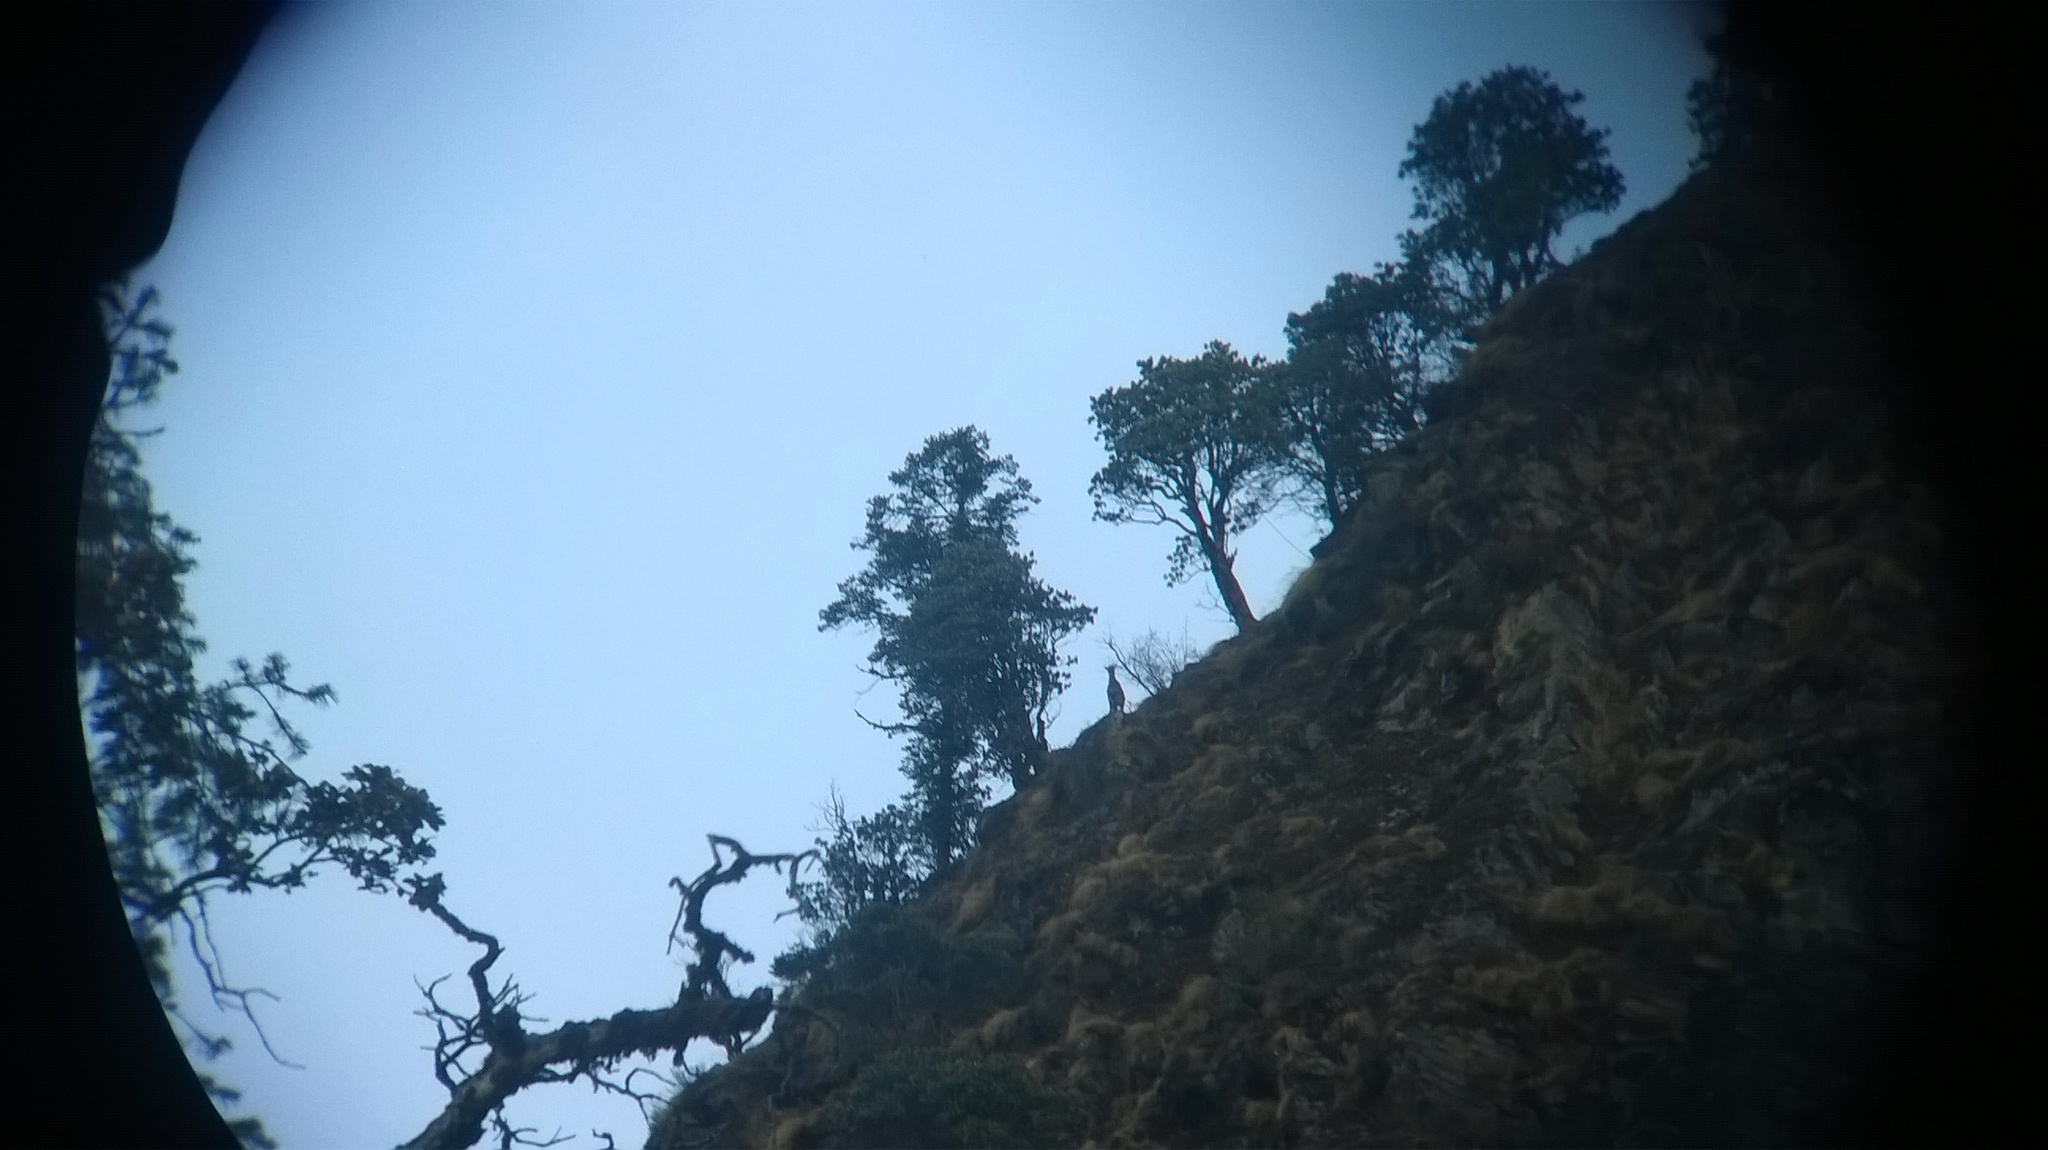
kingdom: Animalia
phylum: Chordata
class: Mammalia
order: Artiodactyla
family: Bovidae
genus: Naemorhedus
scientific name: Naemorhedus goral
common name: Goral
